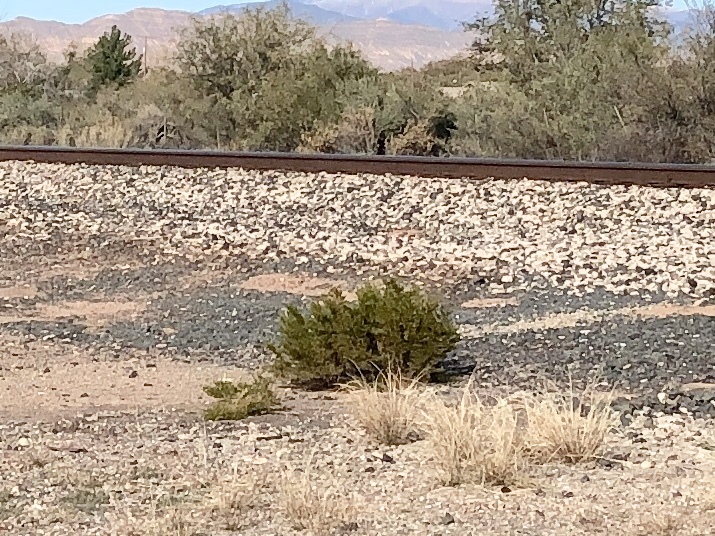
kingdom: Plantae
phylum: Tracheophyta
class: Magnoliopsida
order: Zygophyllales
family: Zygophyllaceae
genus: Larrea
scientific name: Larrea tridentata
